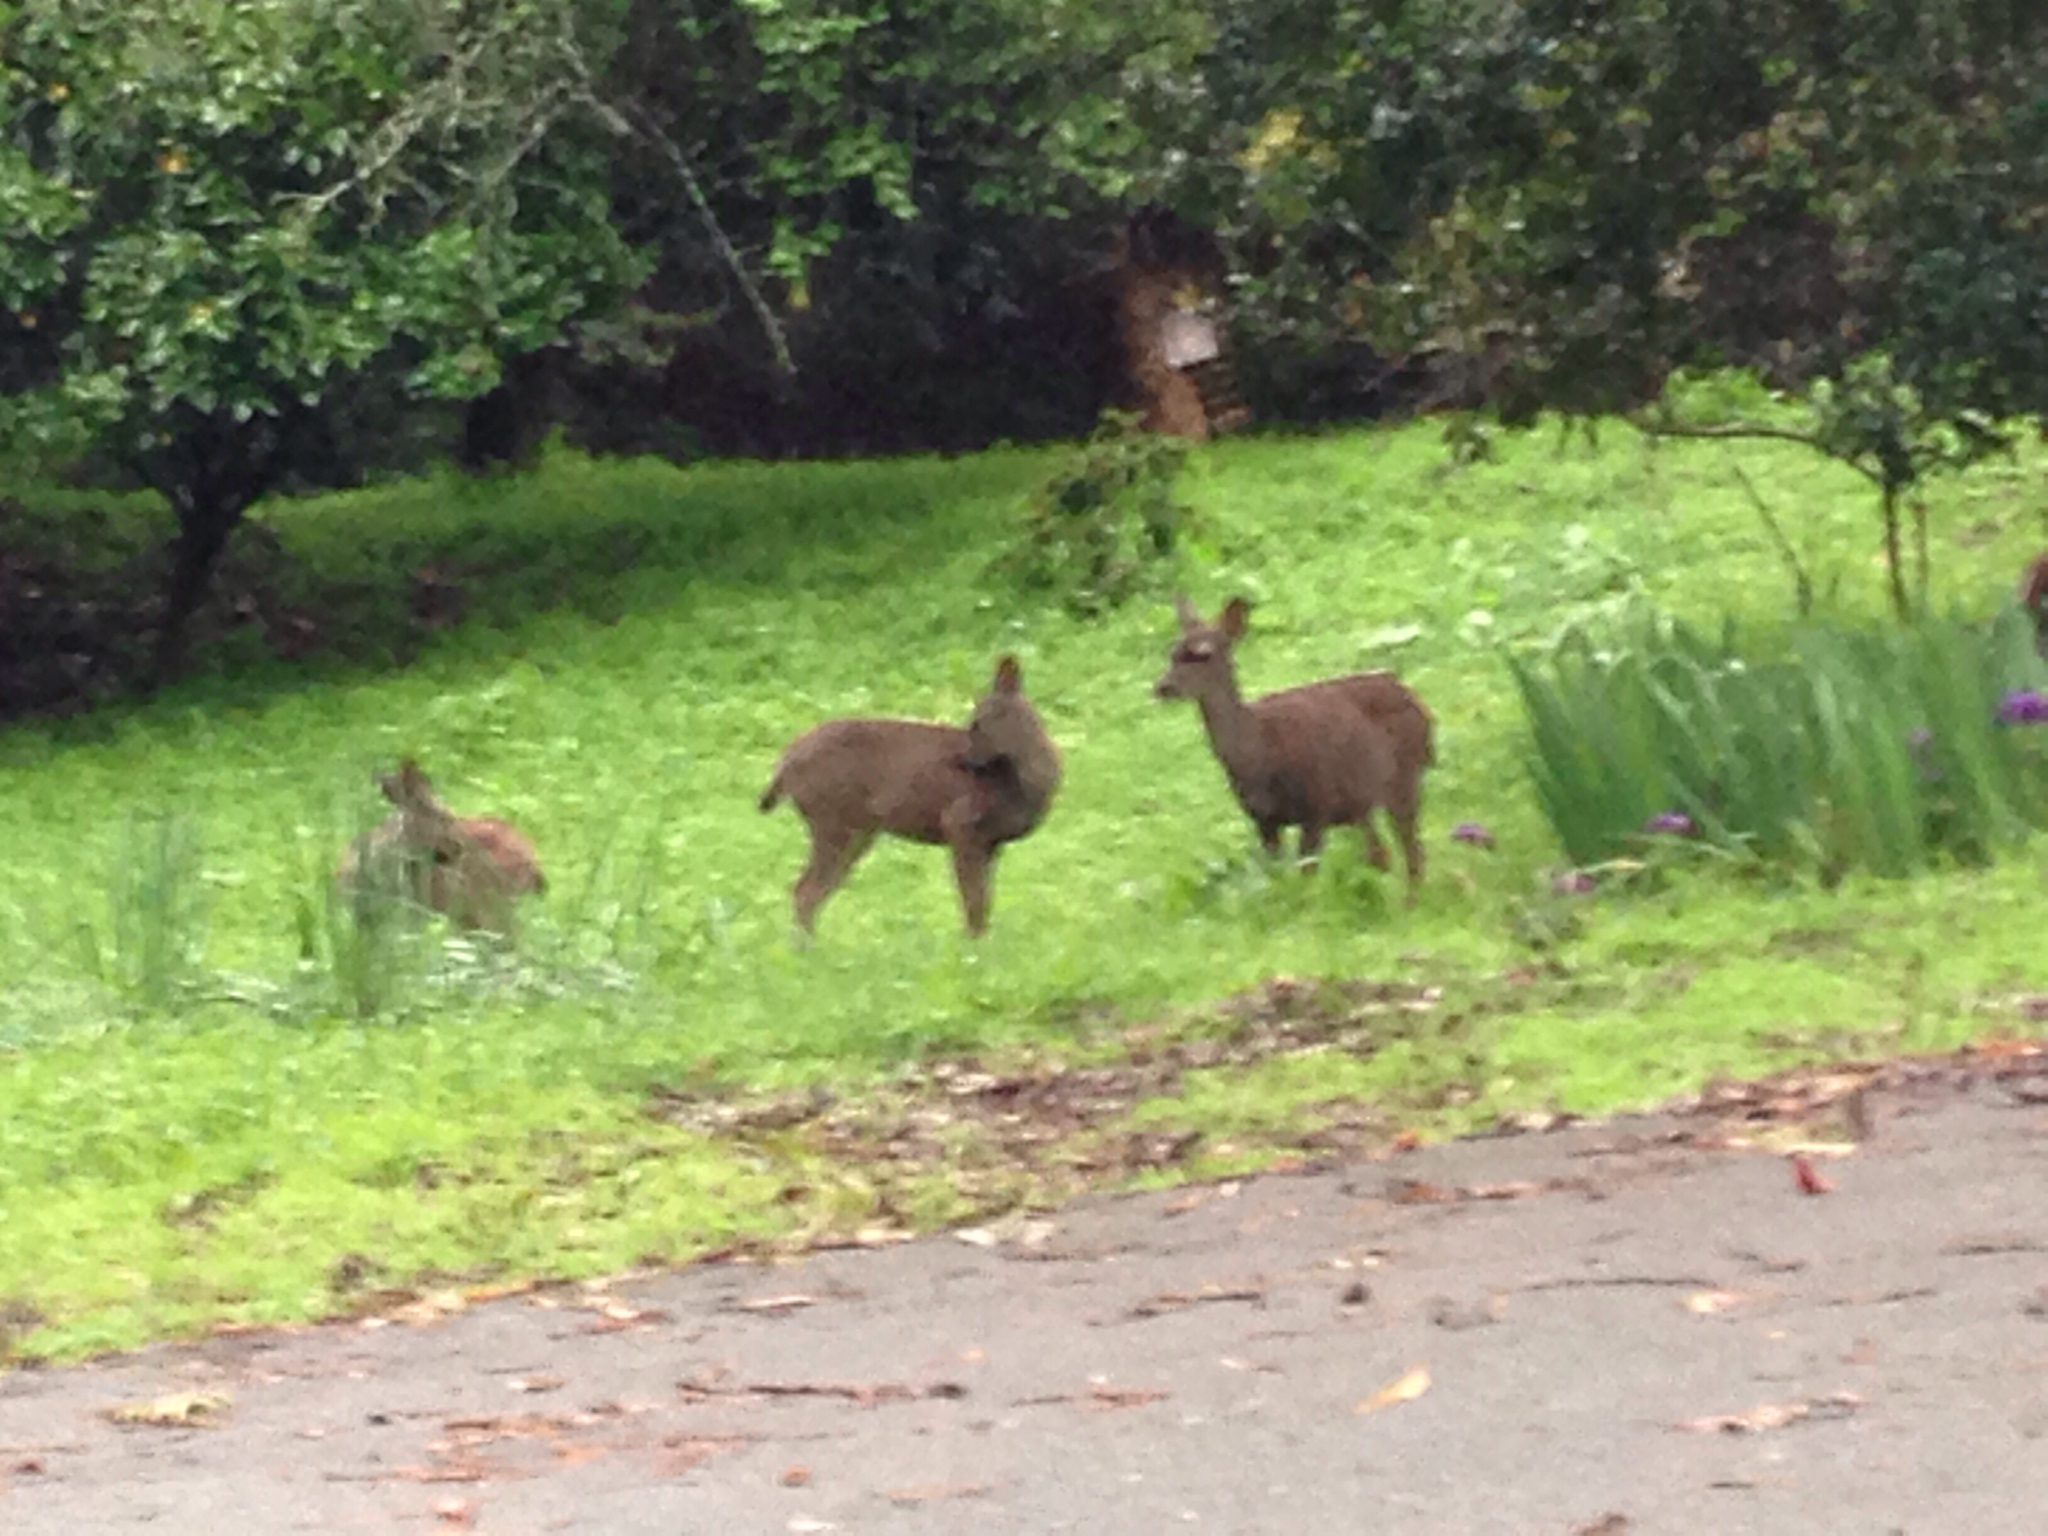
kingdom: Animalia
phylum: Chordata
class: Mammalia
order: Artiodactyla
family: Cervidae
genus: Odocoileus
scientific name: Odocoileus hemionus
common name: Mule deer
